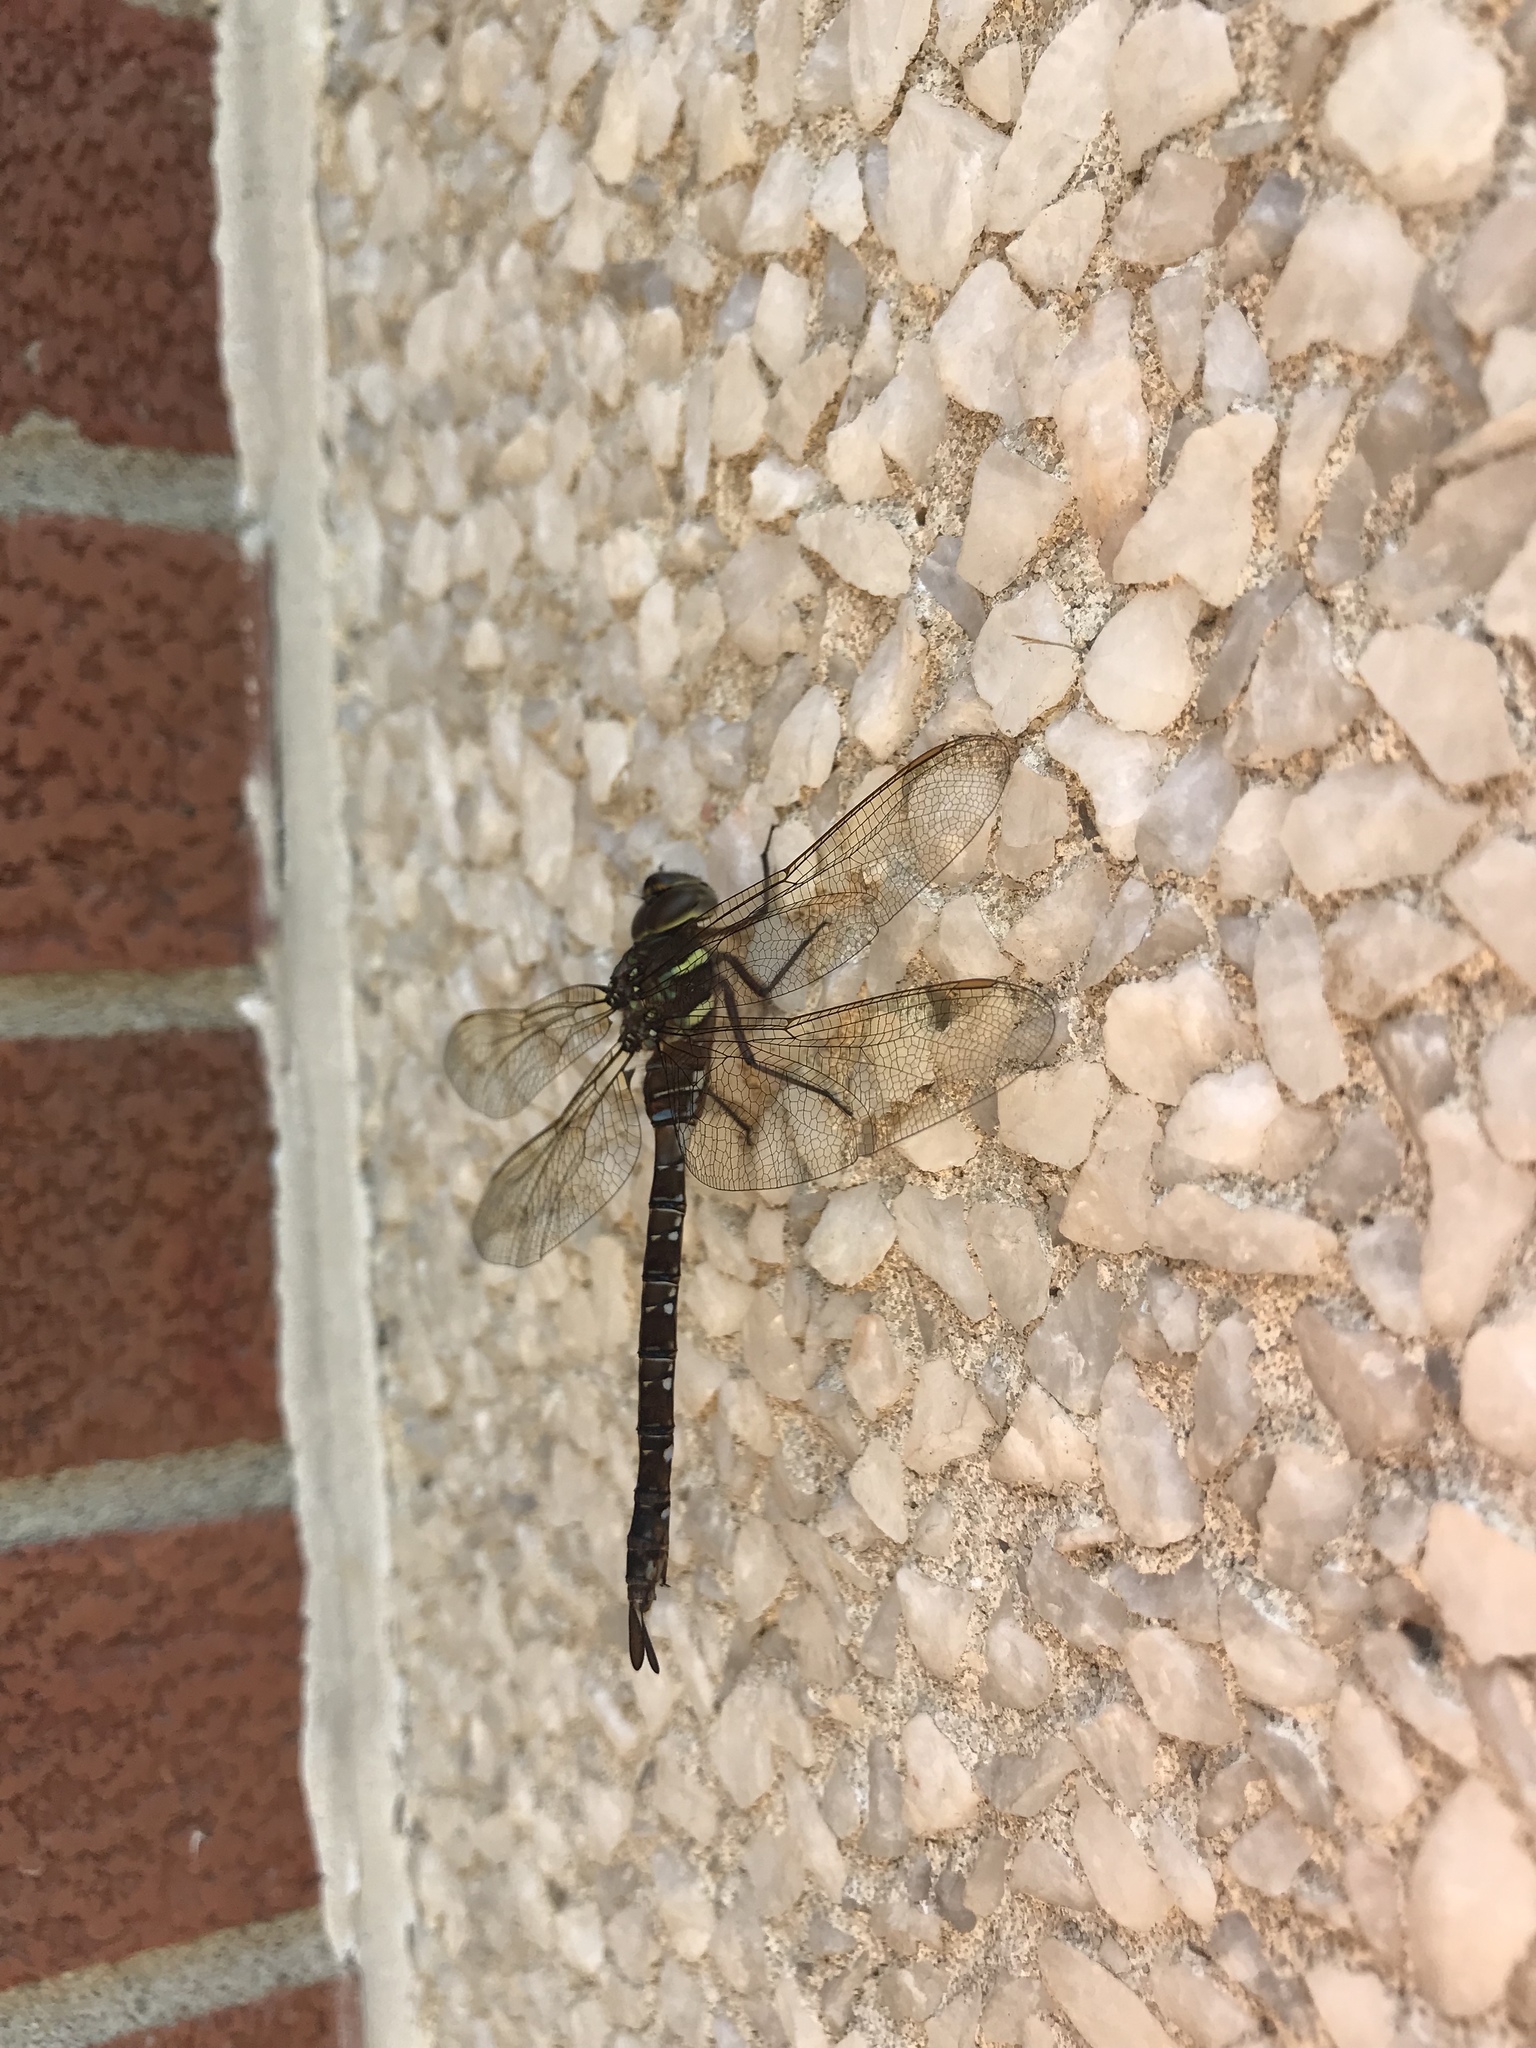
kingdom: Animalia
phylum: Arthropoda
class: Insecta
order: Odonata
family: Aeshnidae
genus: Aeshna
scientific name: Aeshna umbrosa
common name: Shadow darner
